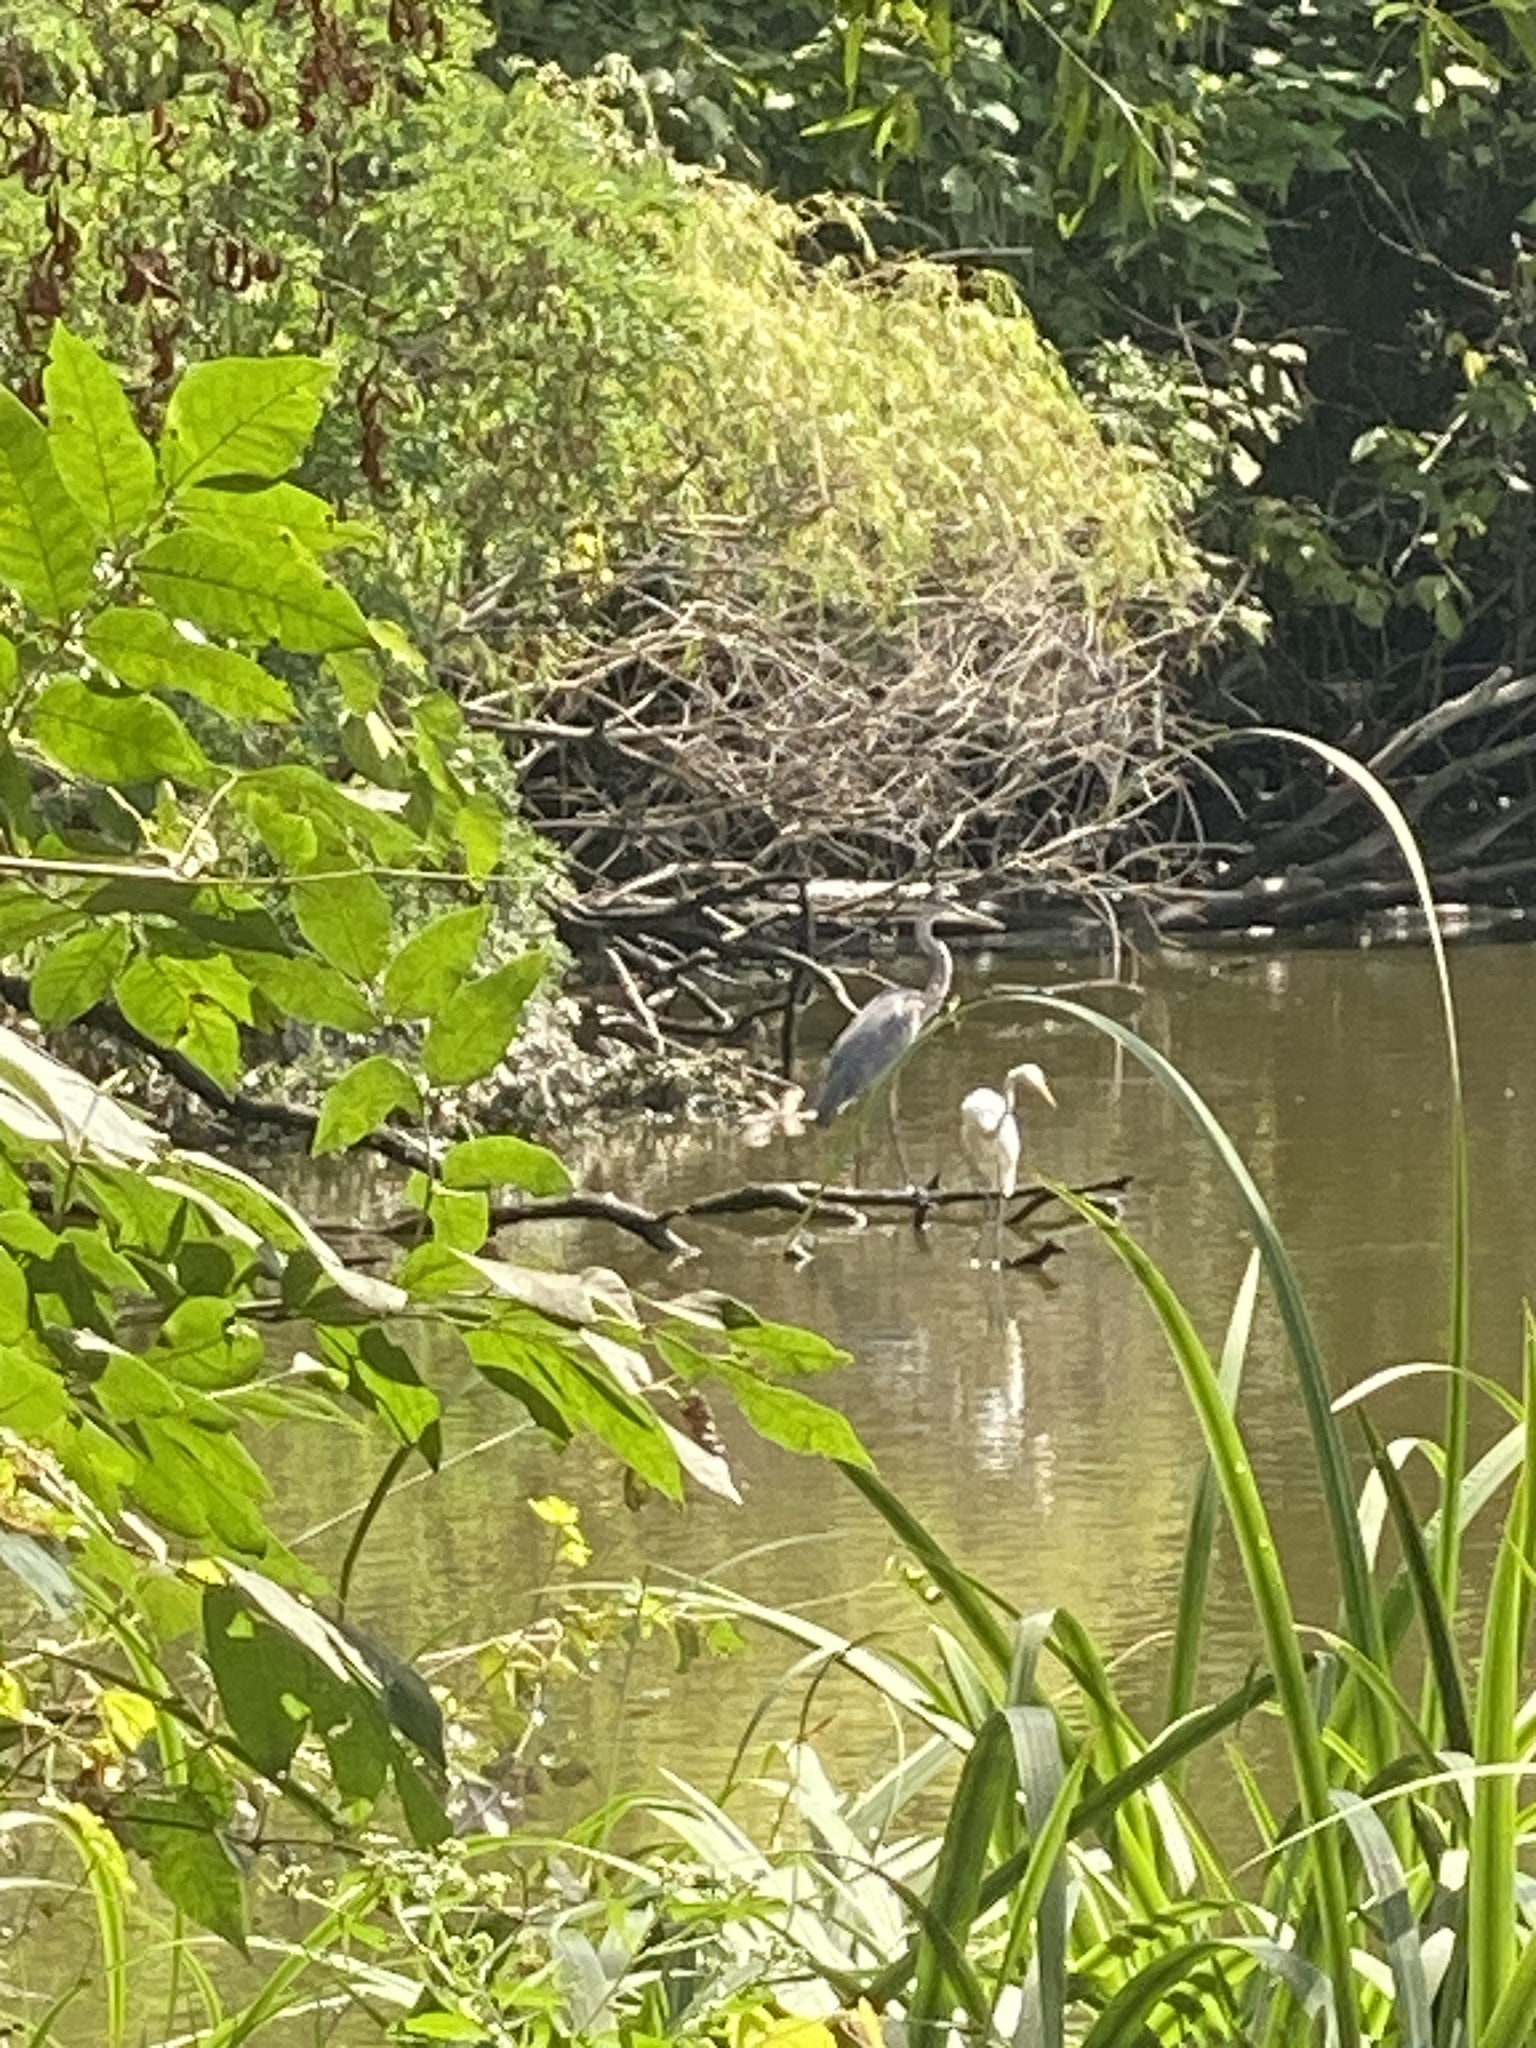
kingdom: Animalia
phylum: Chordata
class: Aves
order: Pelecaniformes
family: Ardeidae
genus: Ardea
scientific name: Ardea herodias
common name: Great blue heron
